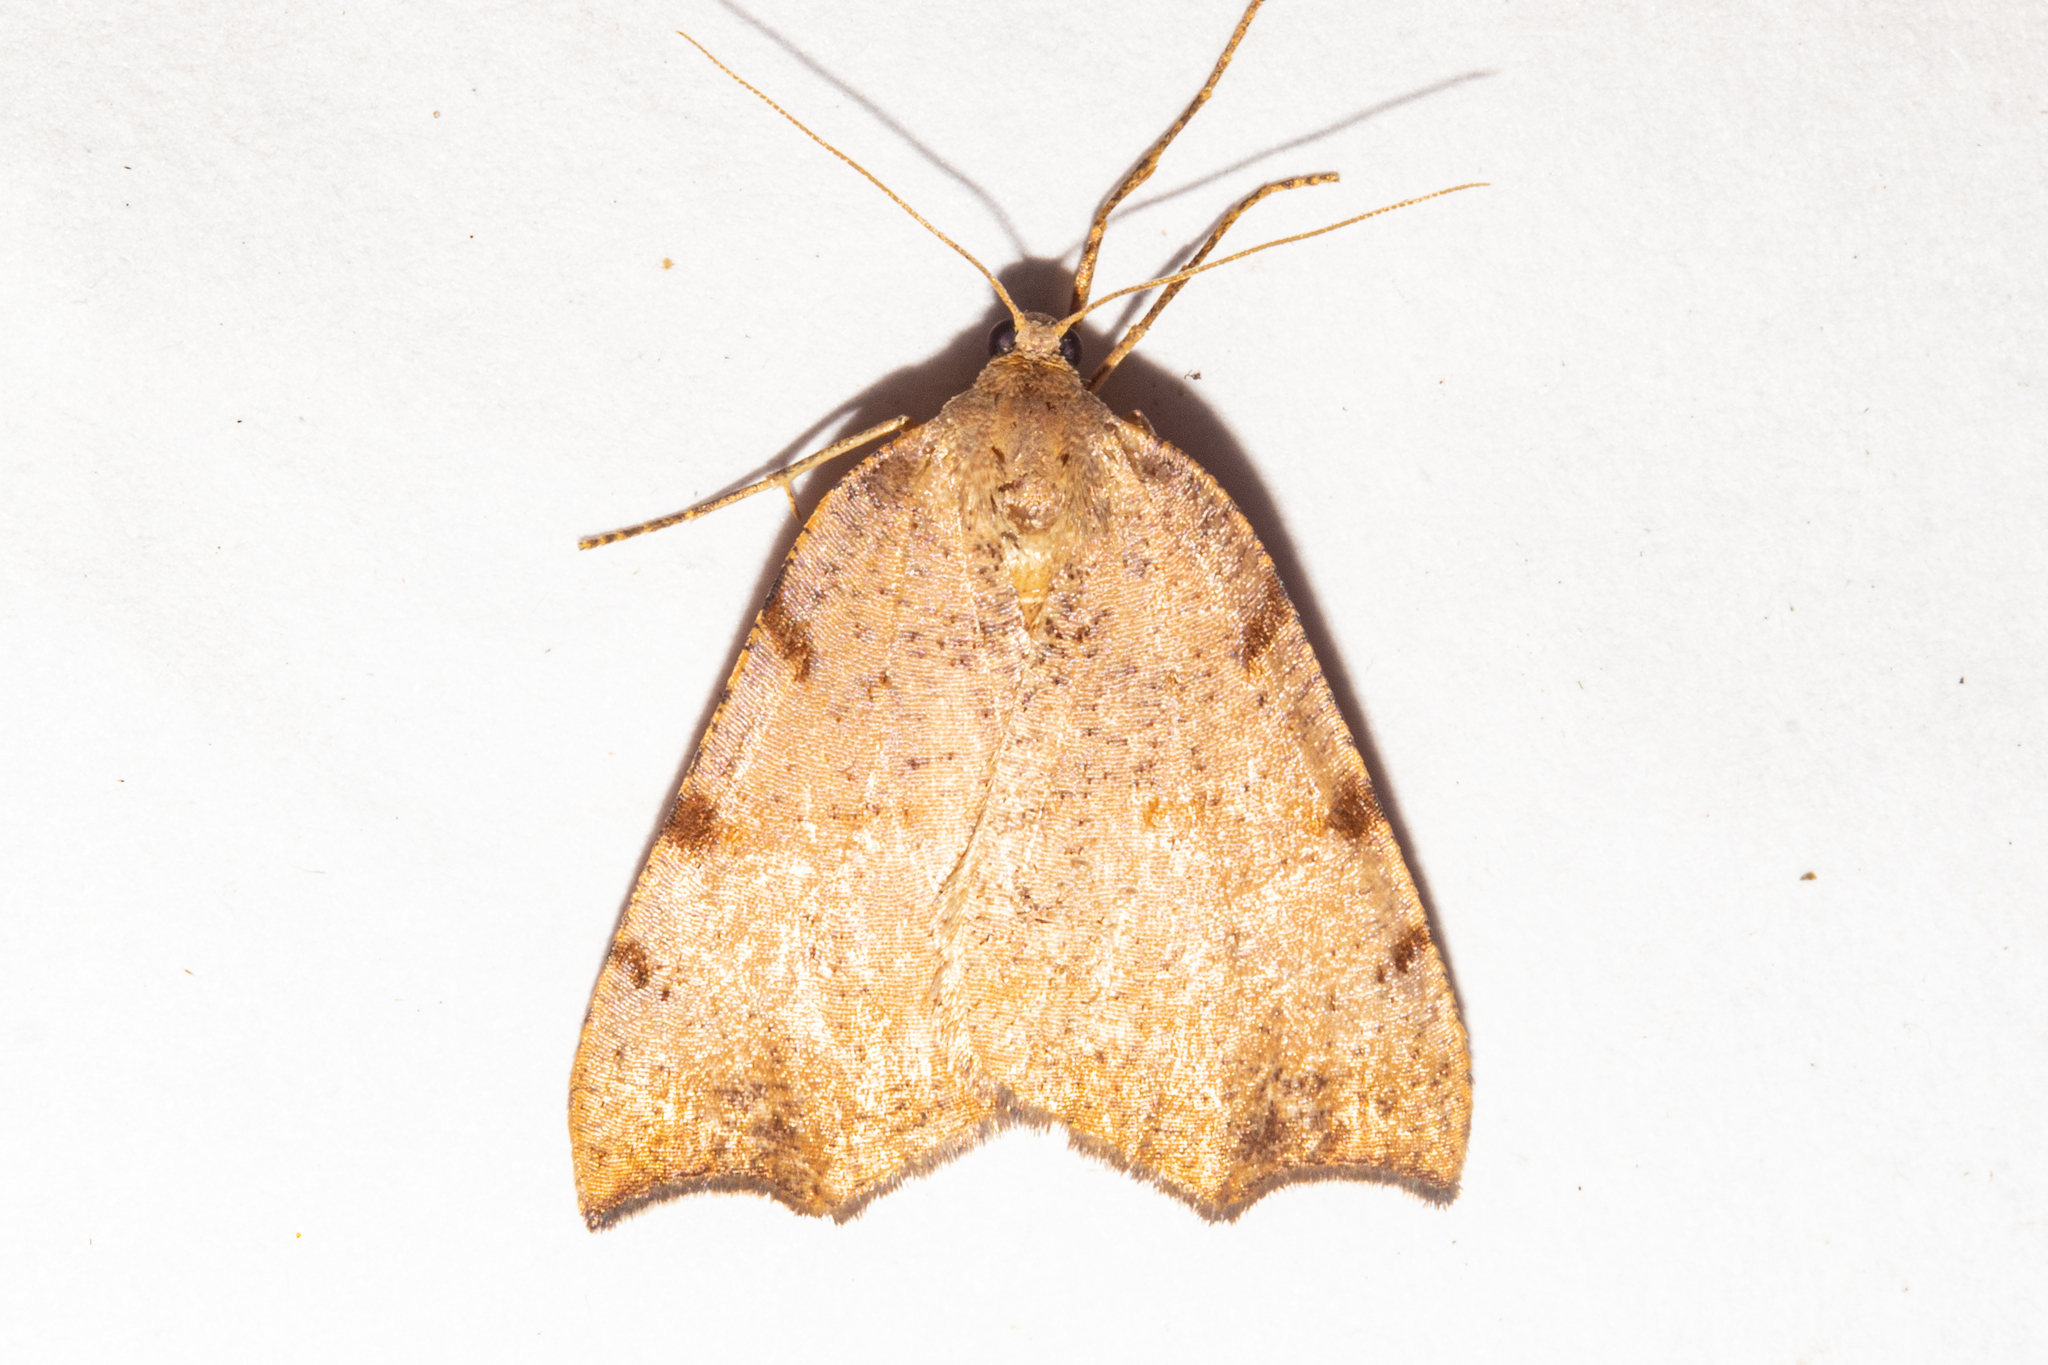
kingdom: Animalia
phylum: Arthropoda
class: Insecta
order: Lepidoptera
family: Geometridae
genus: Sestra
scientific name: Sestra flexata
